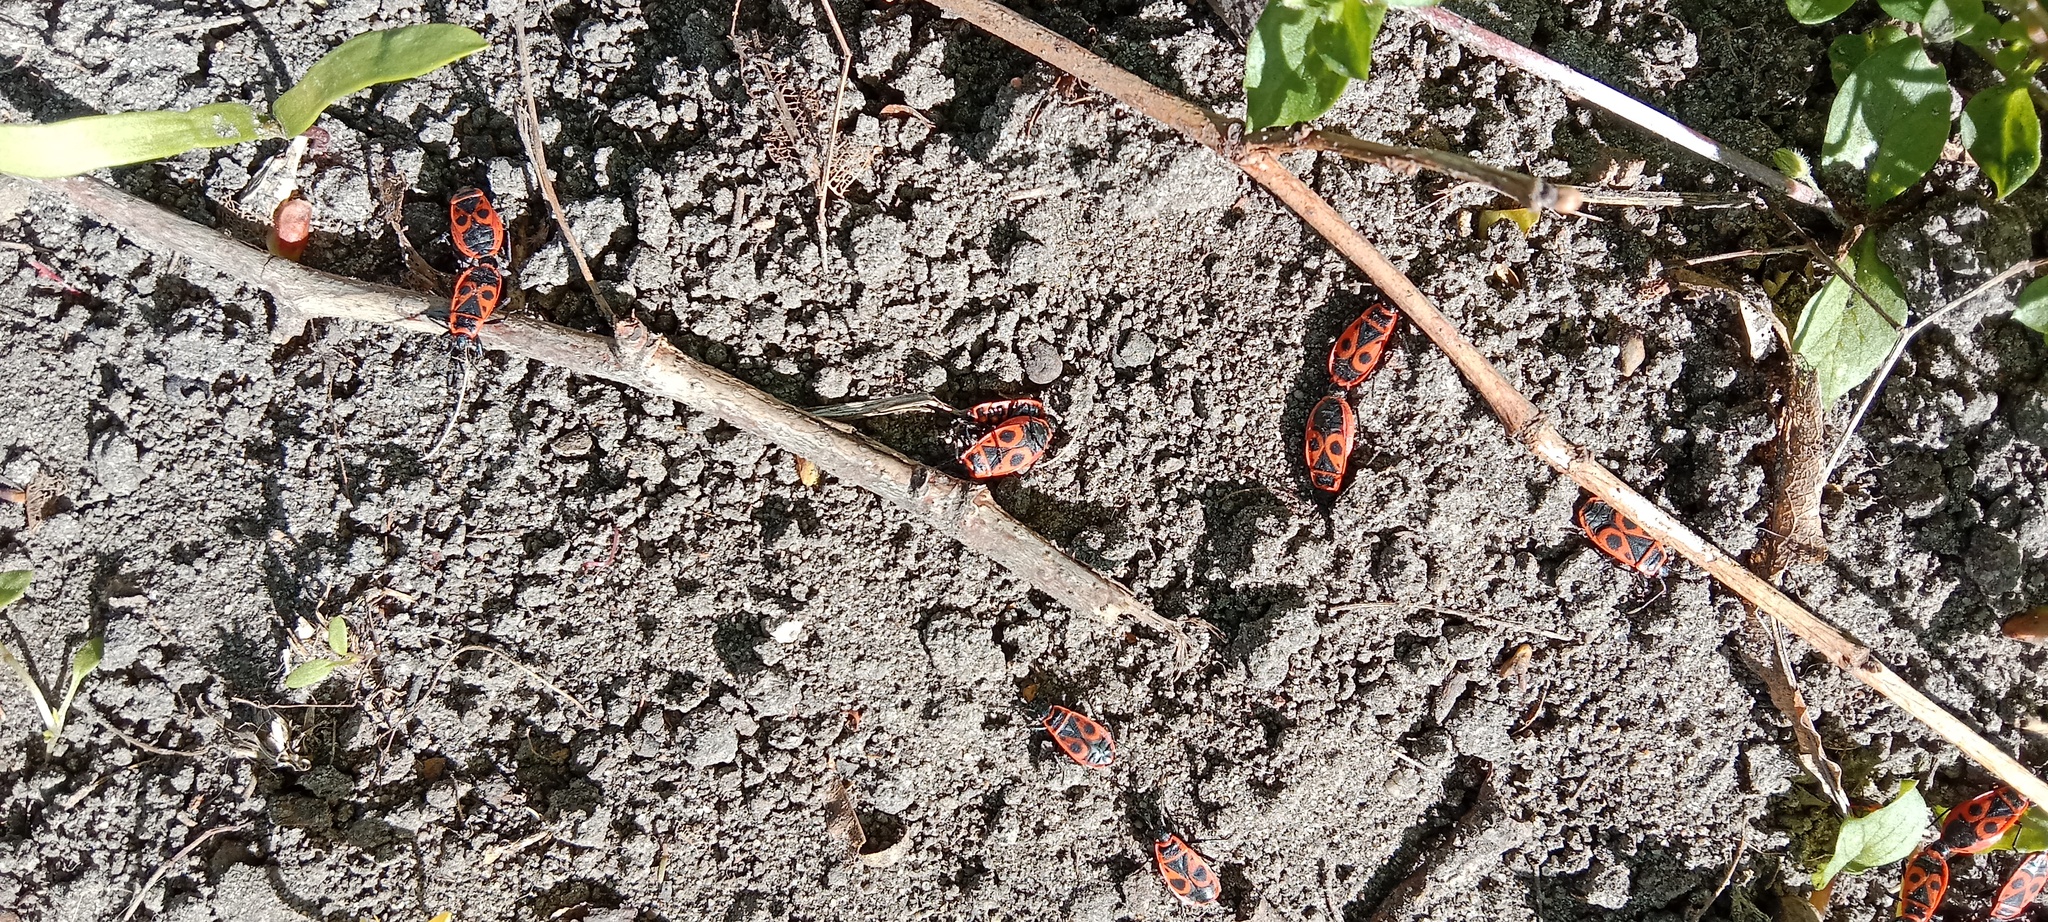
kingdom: Animalia
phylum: Arthropoda
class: Insecta
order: Hemiptera
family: Pyrrhocoridae
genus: Pyrrhocoris
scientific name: Pyrrhocoris apterus
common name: Firebug
